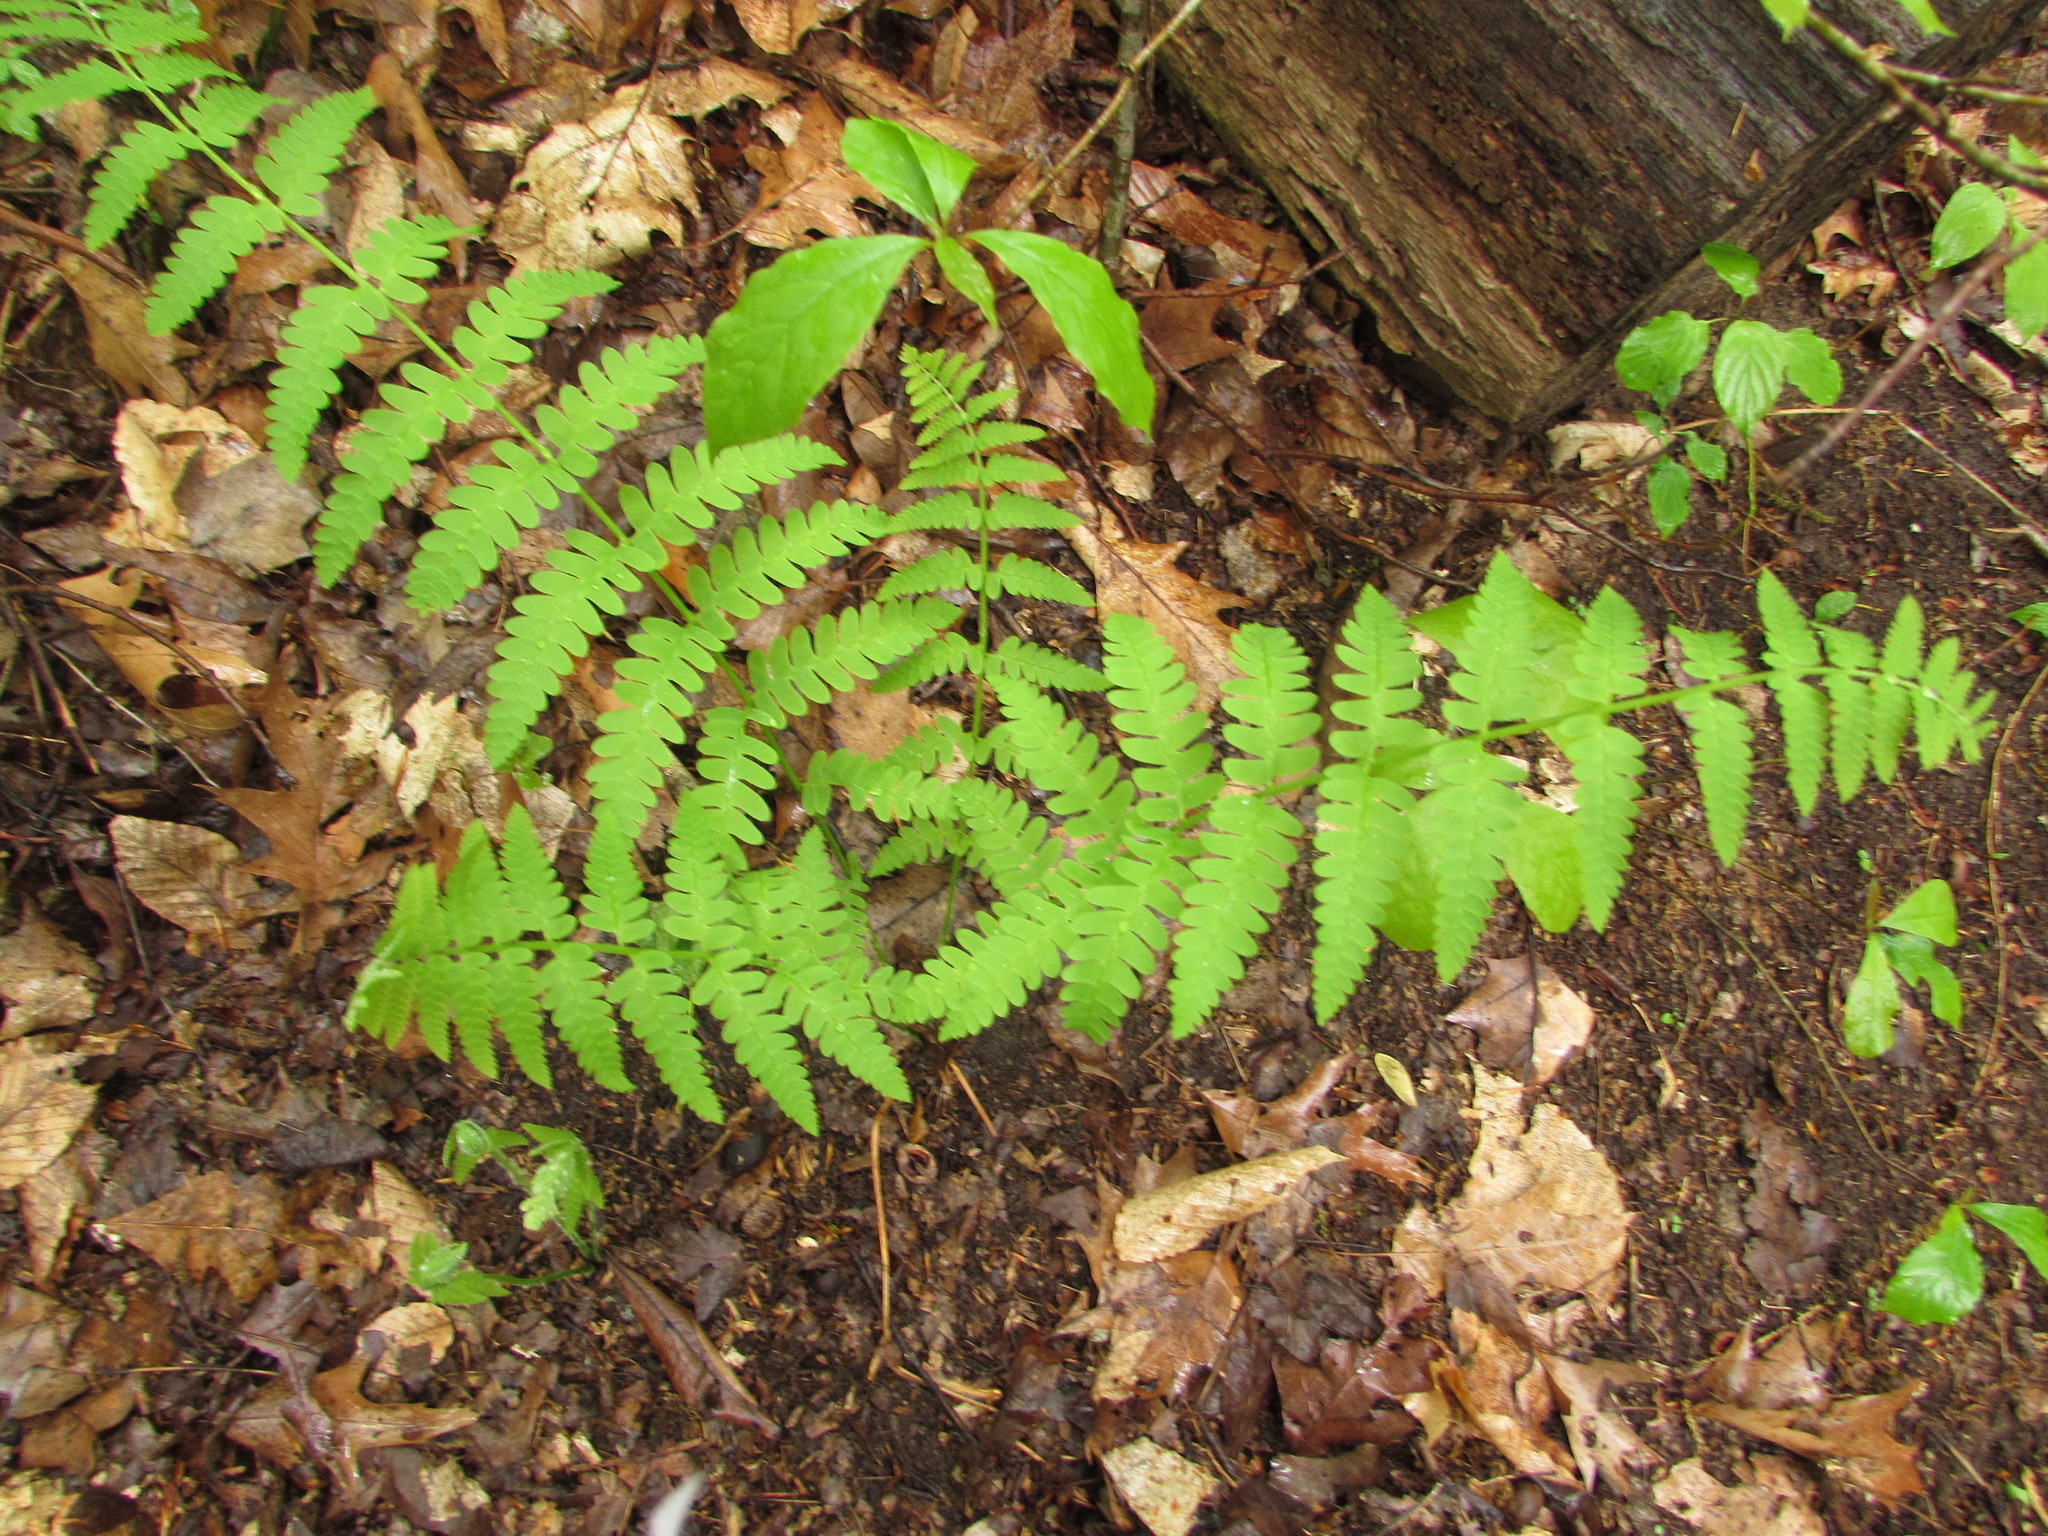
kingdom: Plantae
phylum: Tracheophyta
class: Polypodiopsida
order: Osmundales
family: Osmundaceae
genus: Claytosmunda
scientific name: Claytosmunda claytoniana
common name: Clayton's fern
